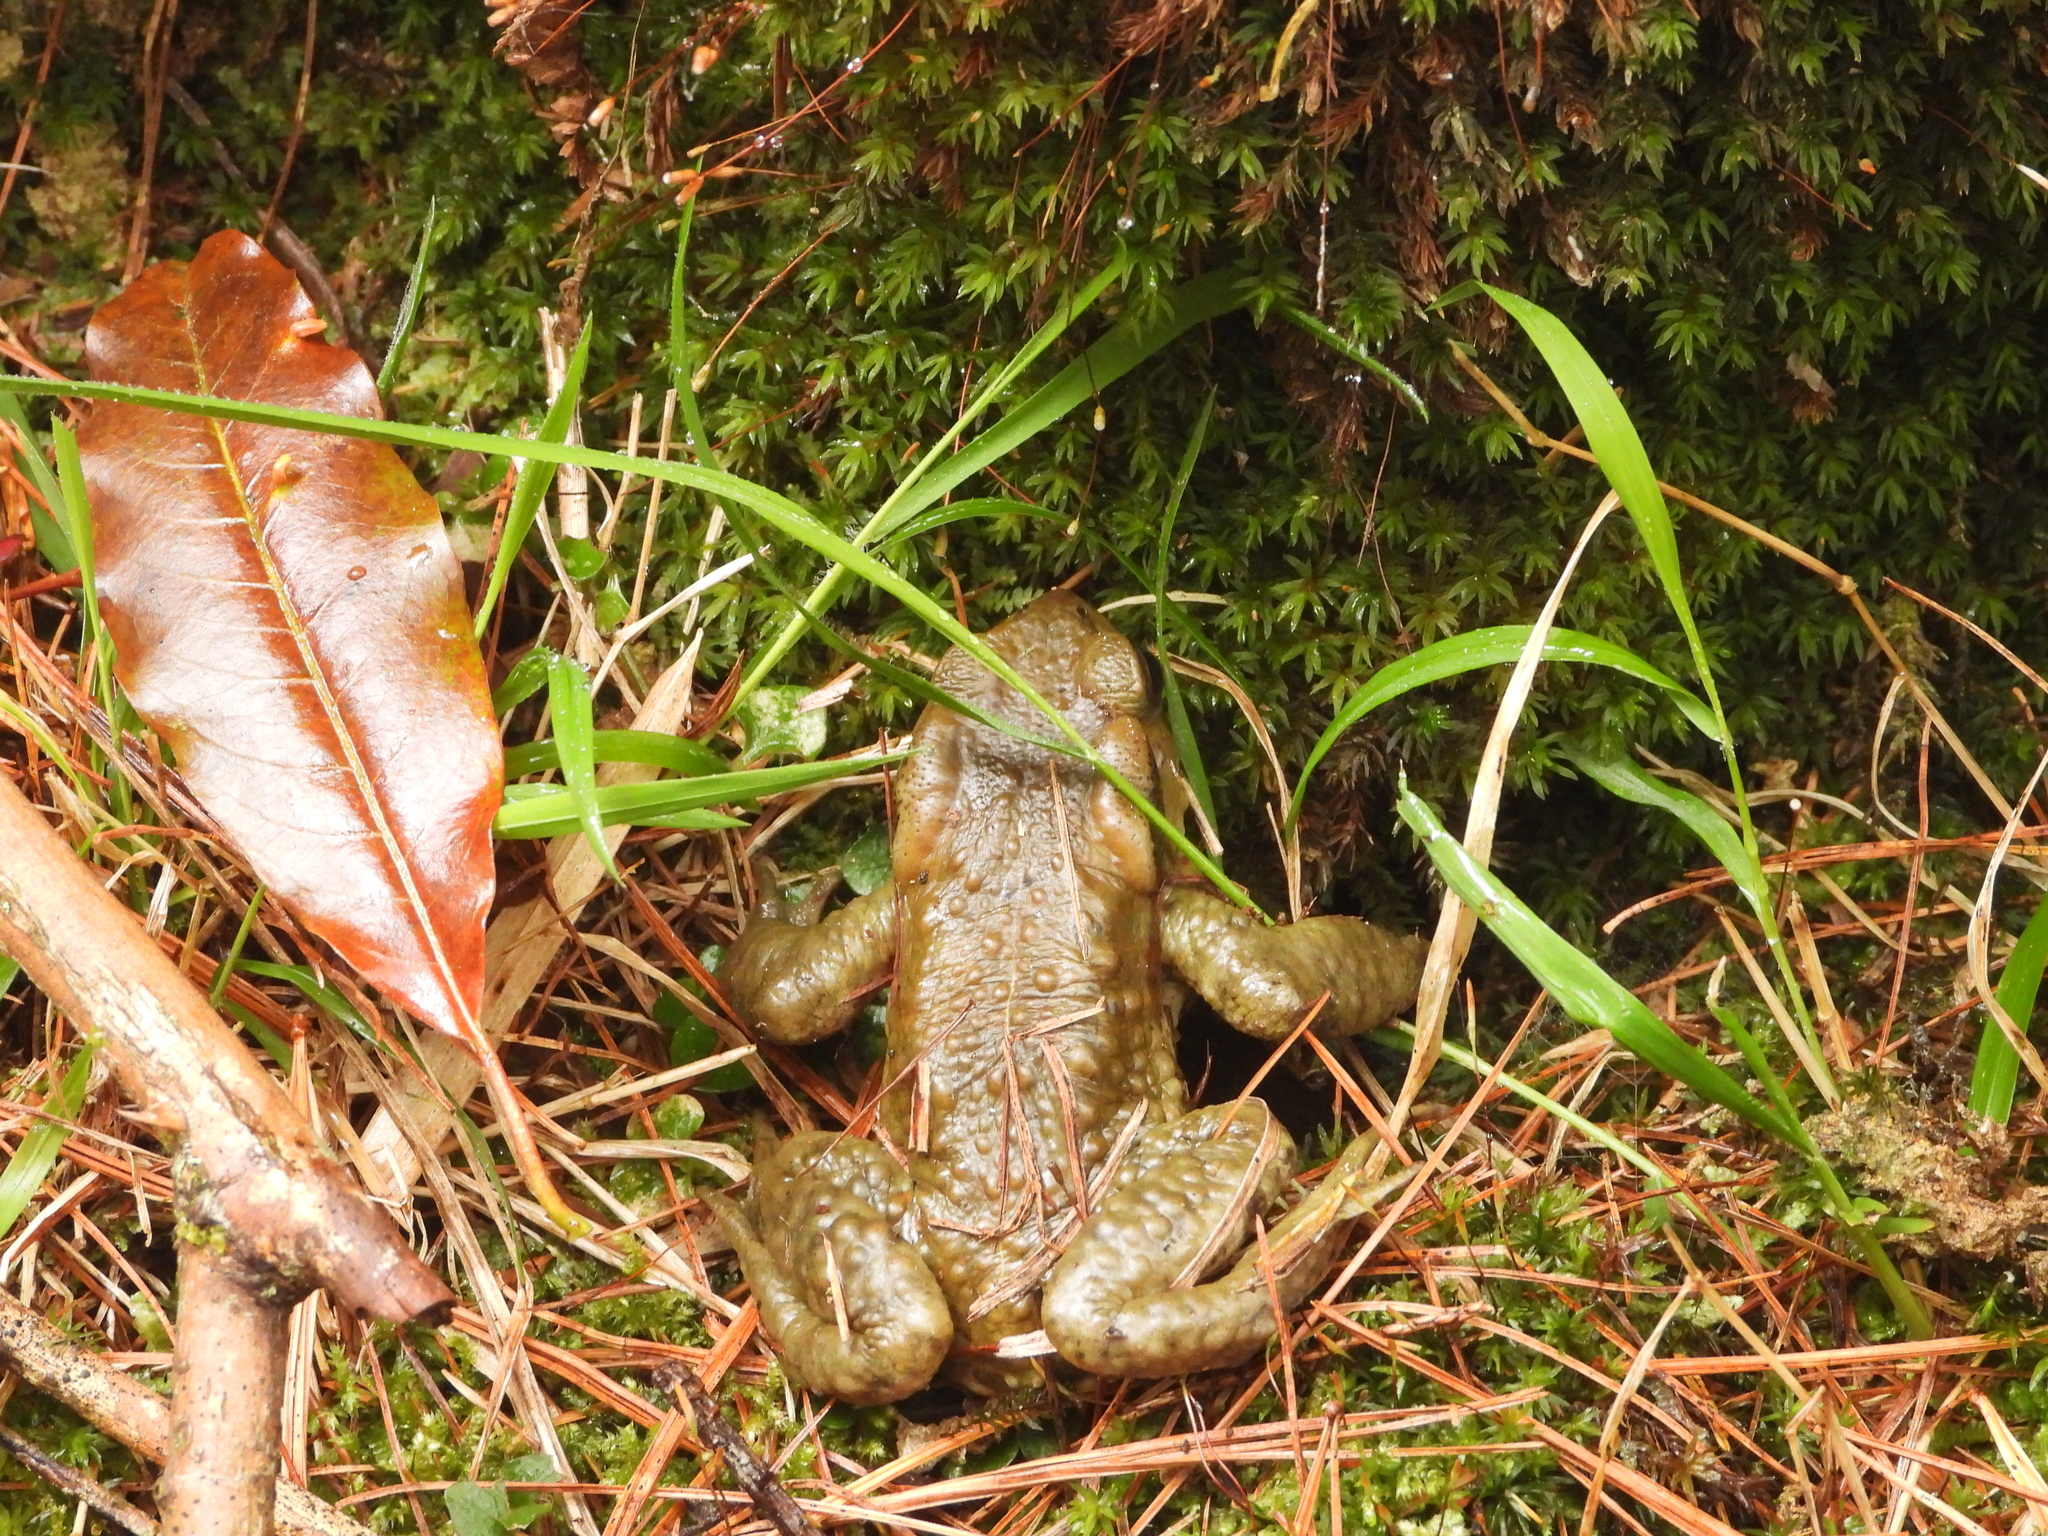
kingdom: Animalia
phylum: Chordata
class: Amphibia
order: Anura
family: Bufonidae
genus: Bufo
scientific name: Bufo bankorensis
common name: Bankor toad
